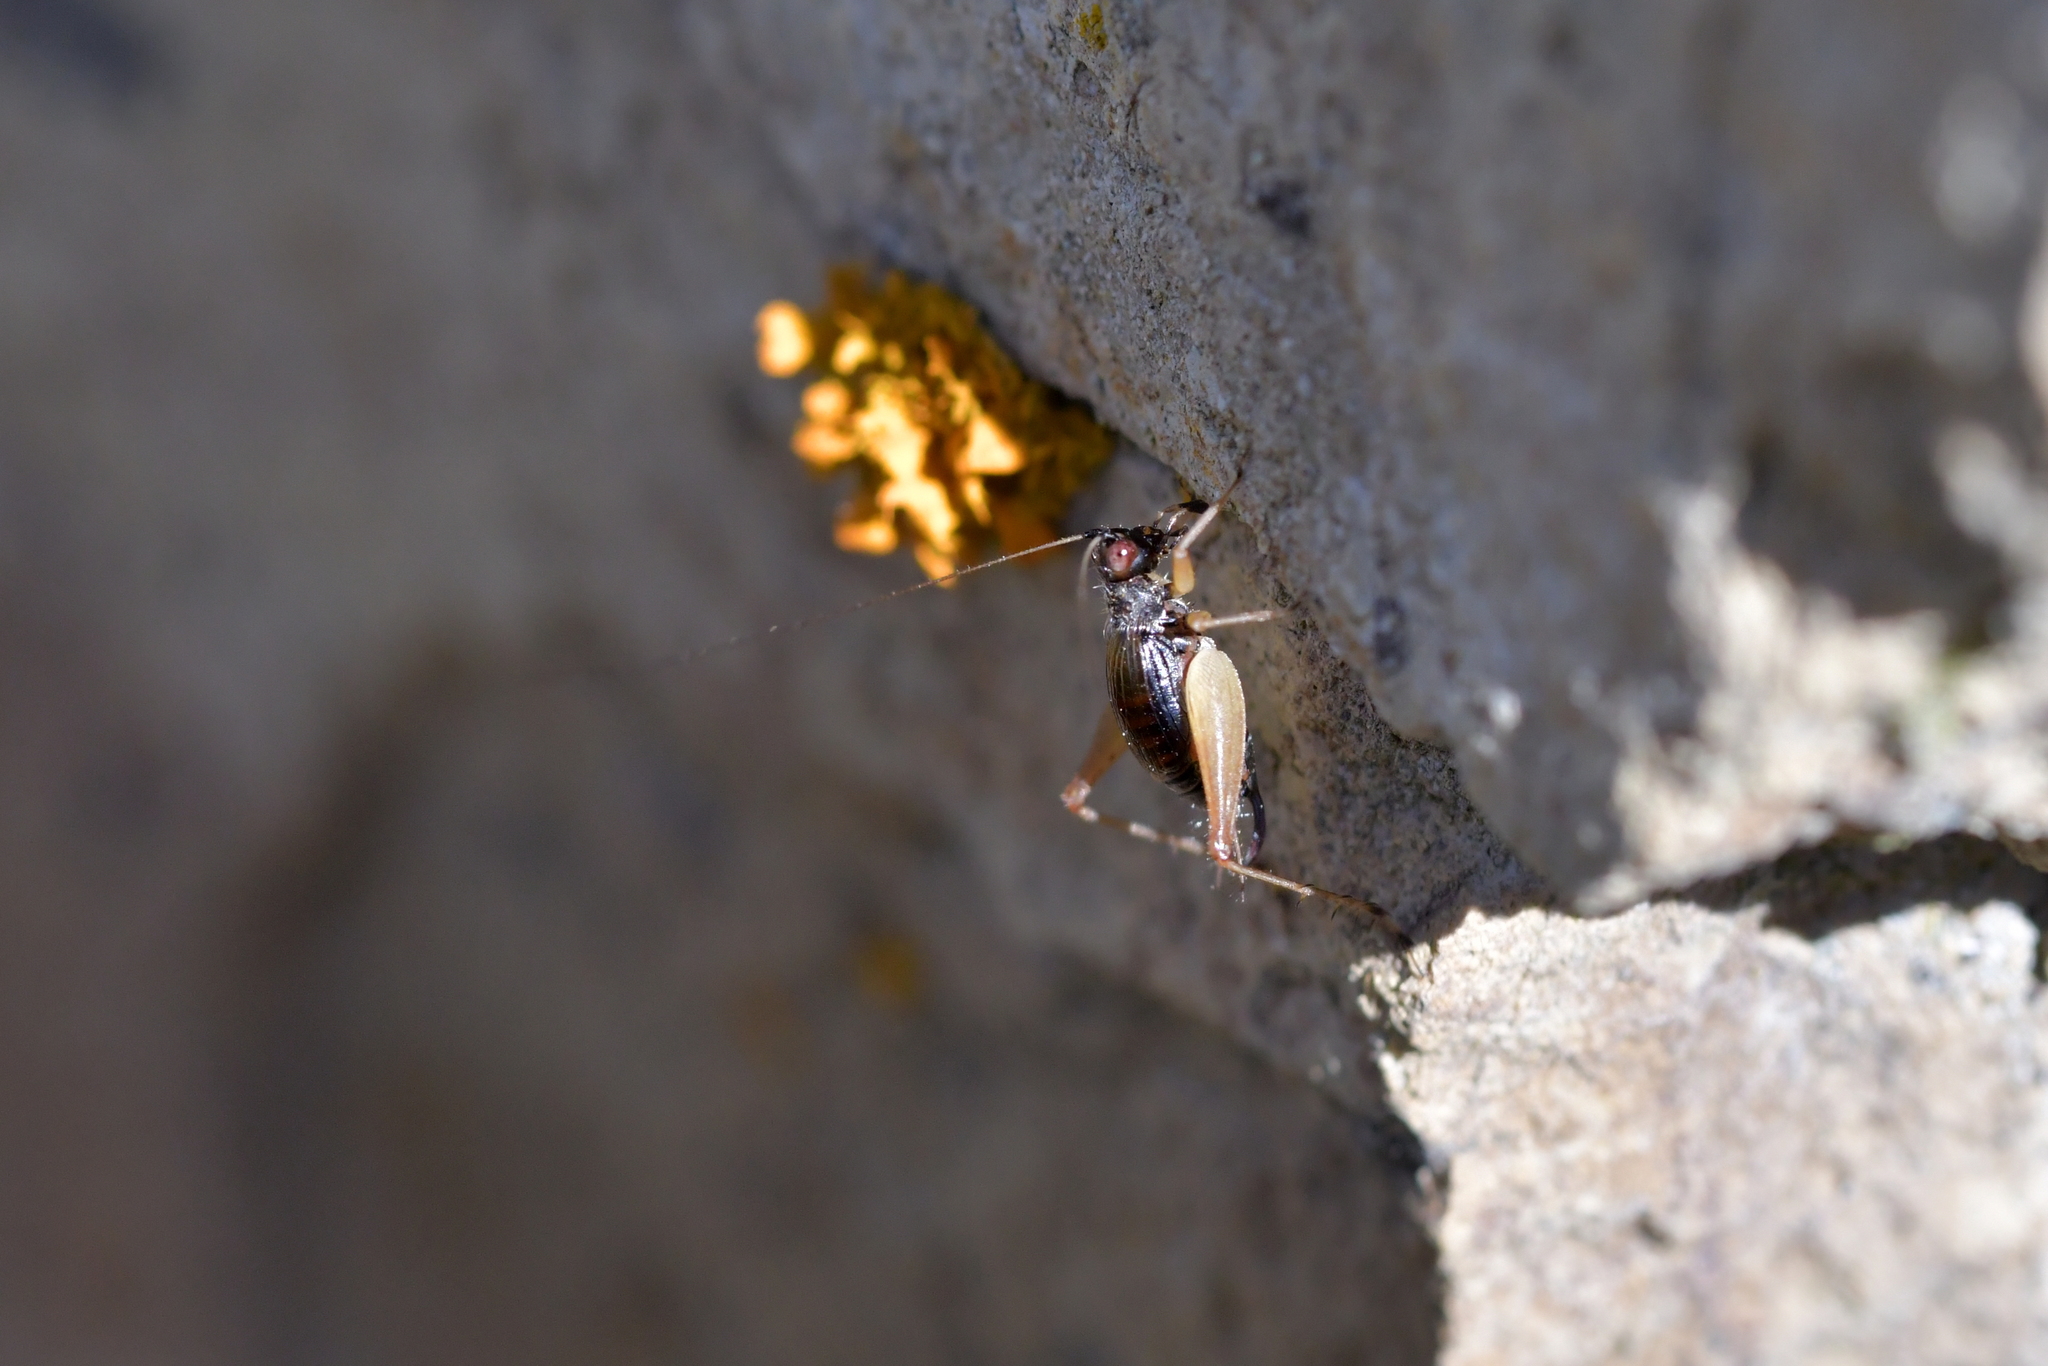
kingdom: Animalia
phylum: Arthropoda
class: Insecta
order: Orthoptera
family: Trigonidiidae
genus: Metioche
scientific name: Metioche maorica
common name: New zealand trig
